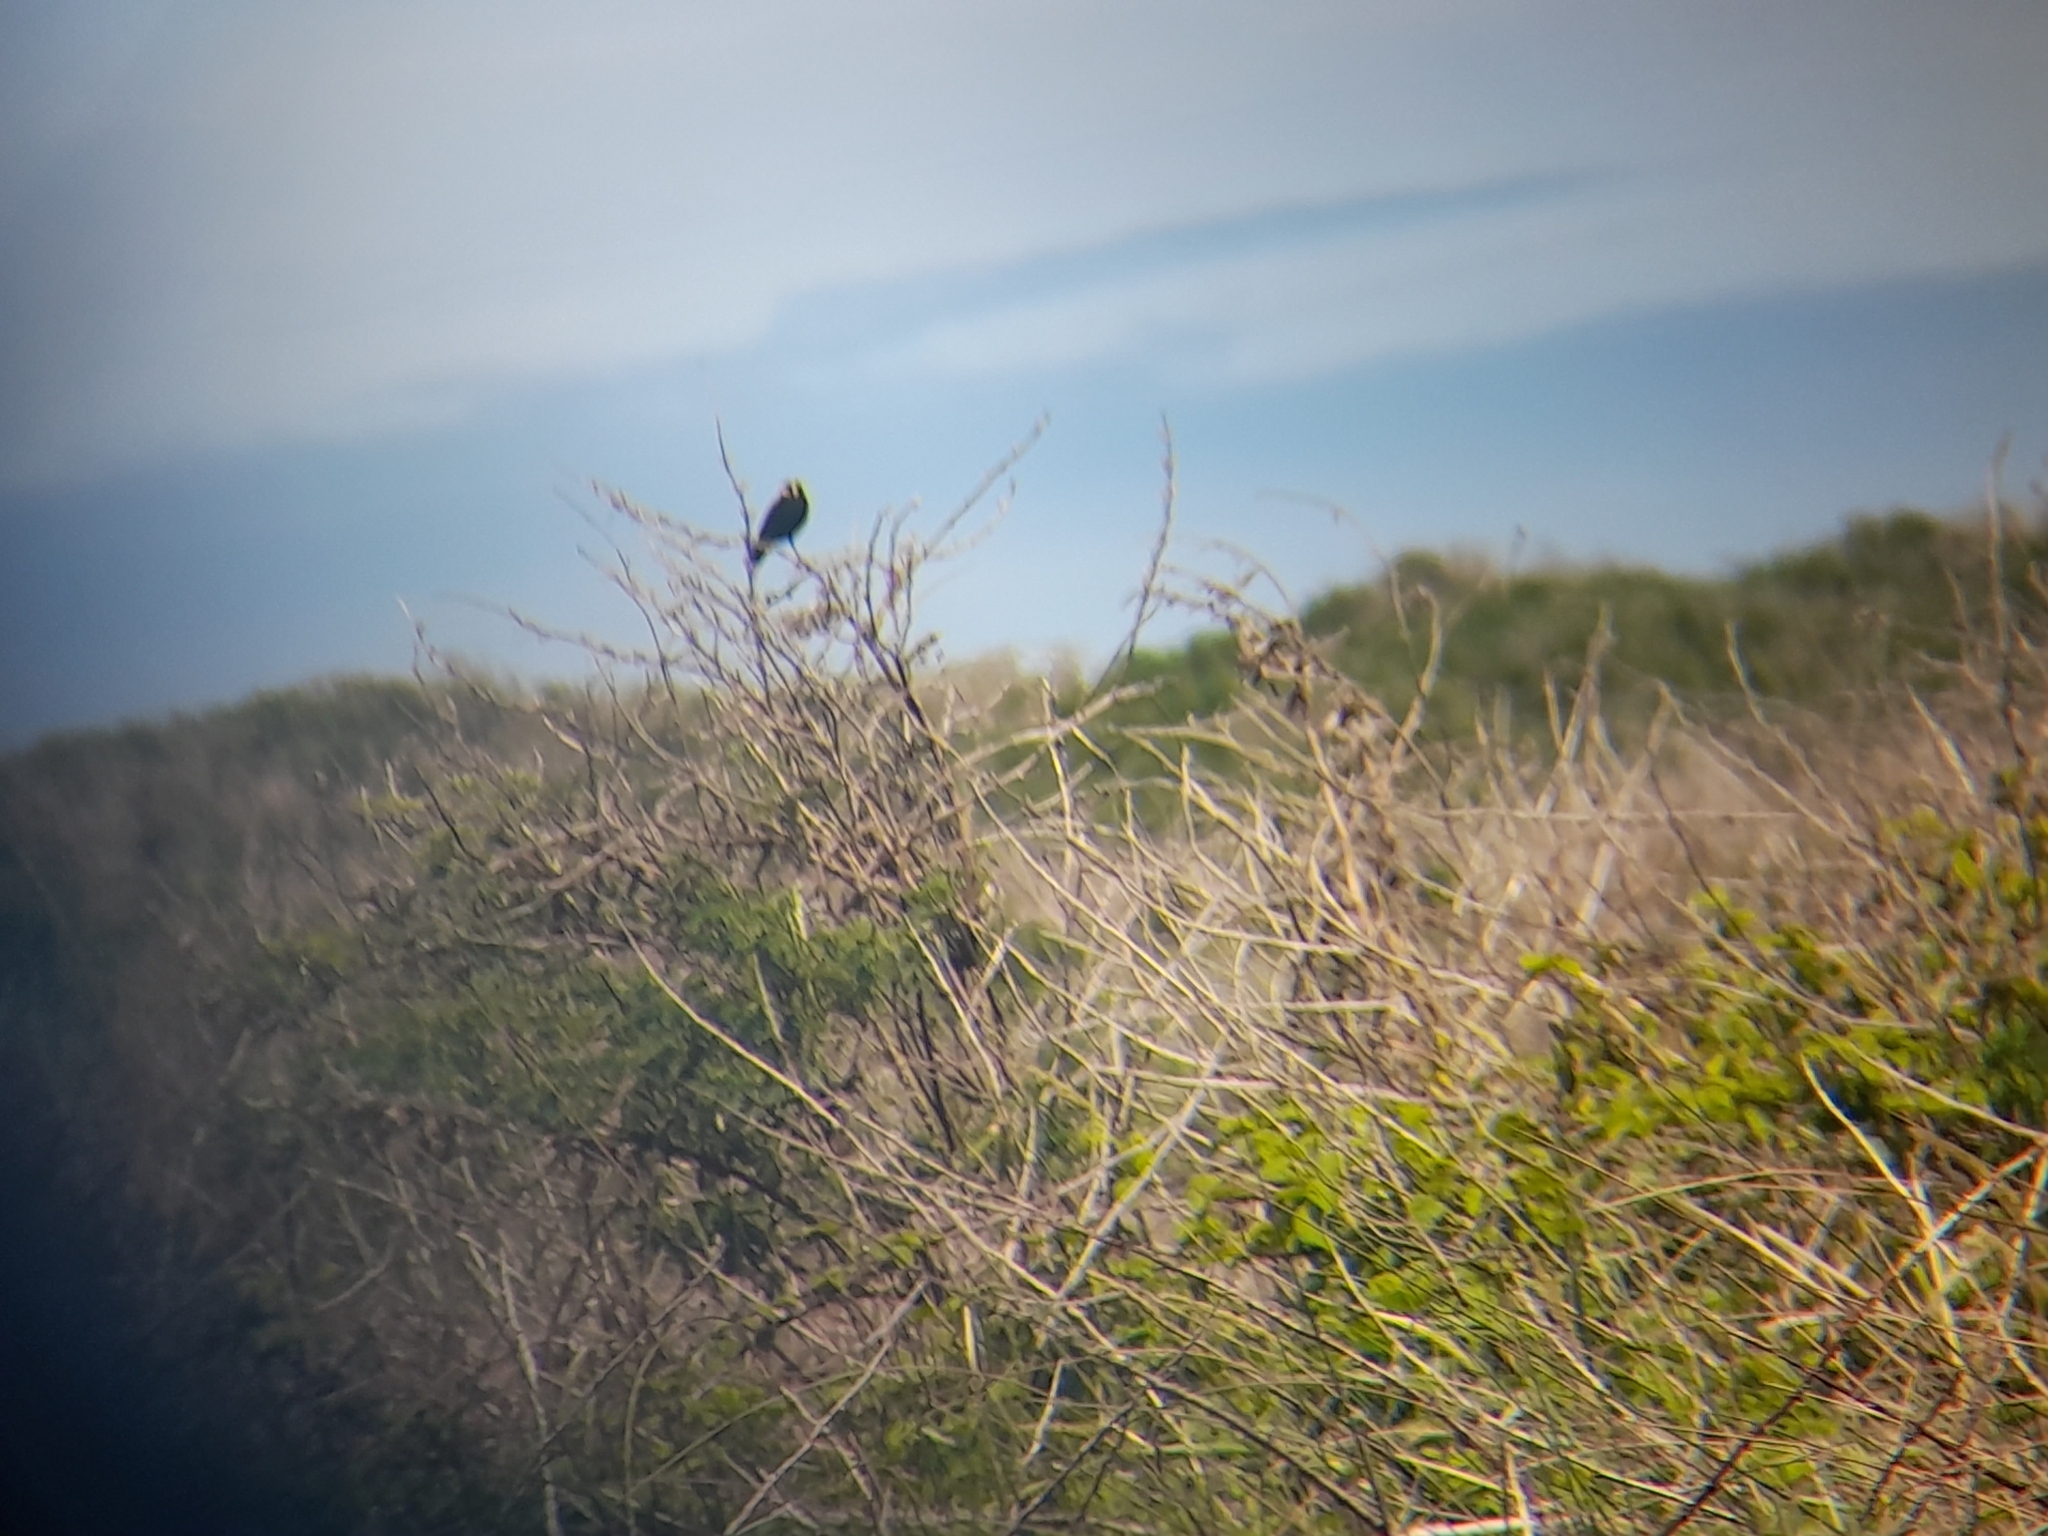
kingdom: Animalia
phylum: Chordata
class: Aves
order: Passeriformes
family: Tyrannidae
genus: Hymenops
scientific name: Hymenops perspicillatus
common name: Spectacled tyrant
